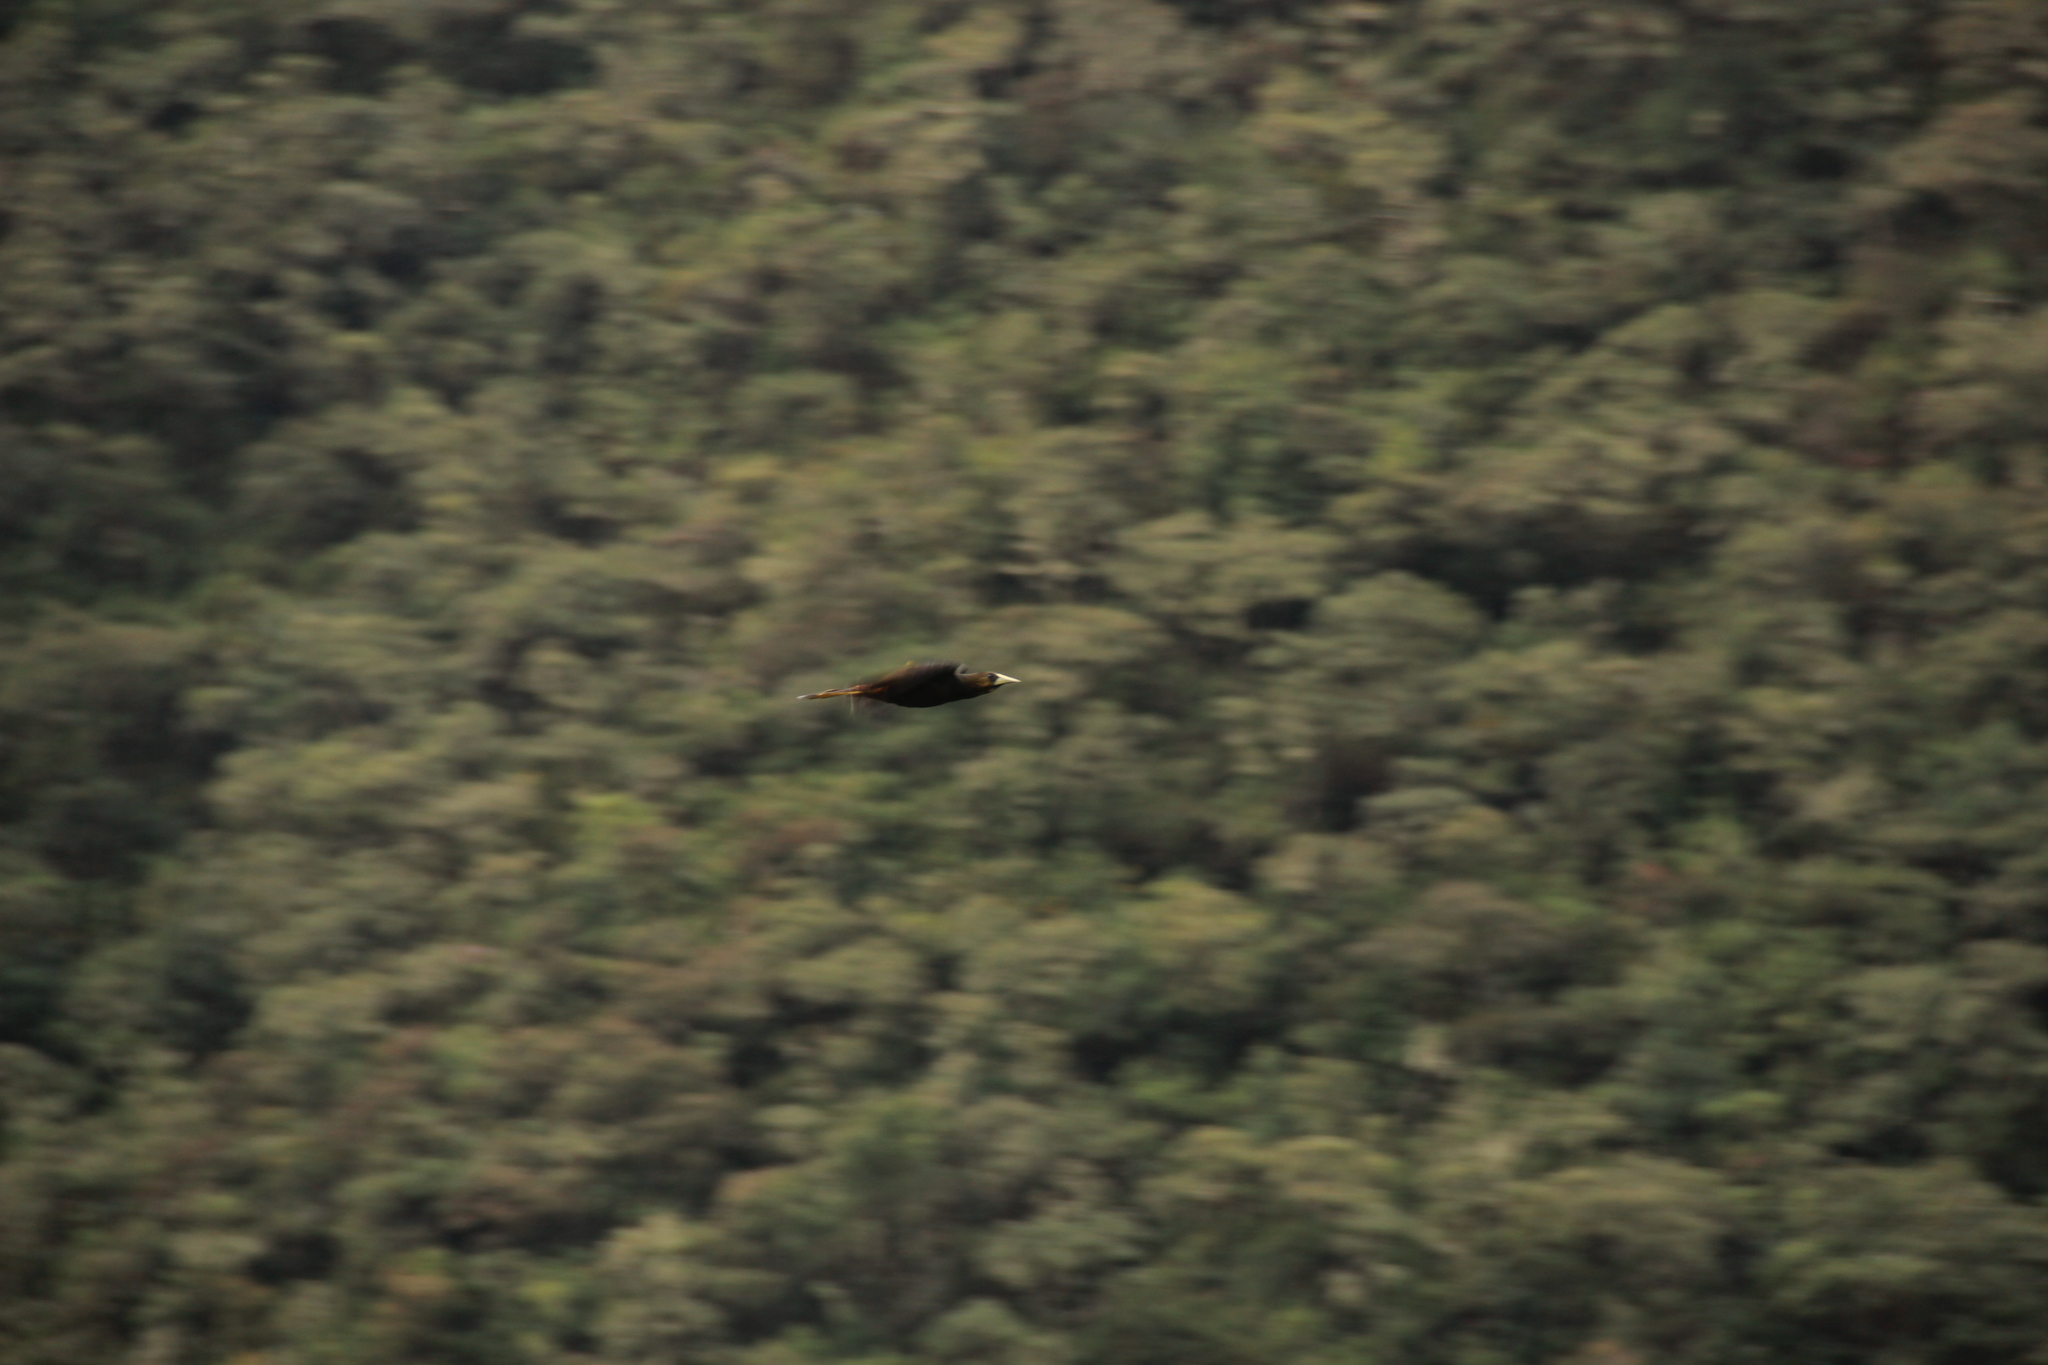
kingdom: Animalia
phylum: Chordata
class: Aves
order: Passeriformes
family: Icteridae
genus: Psarocolius
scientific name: Psarocolius atrovirens
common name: Dusky-green oropendola
